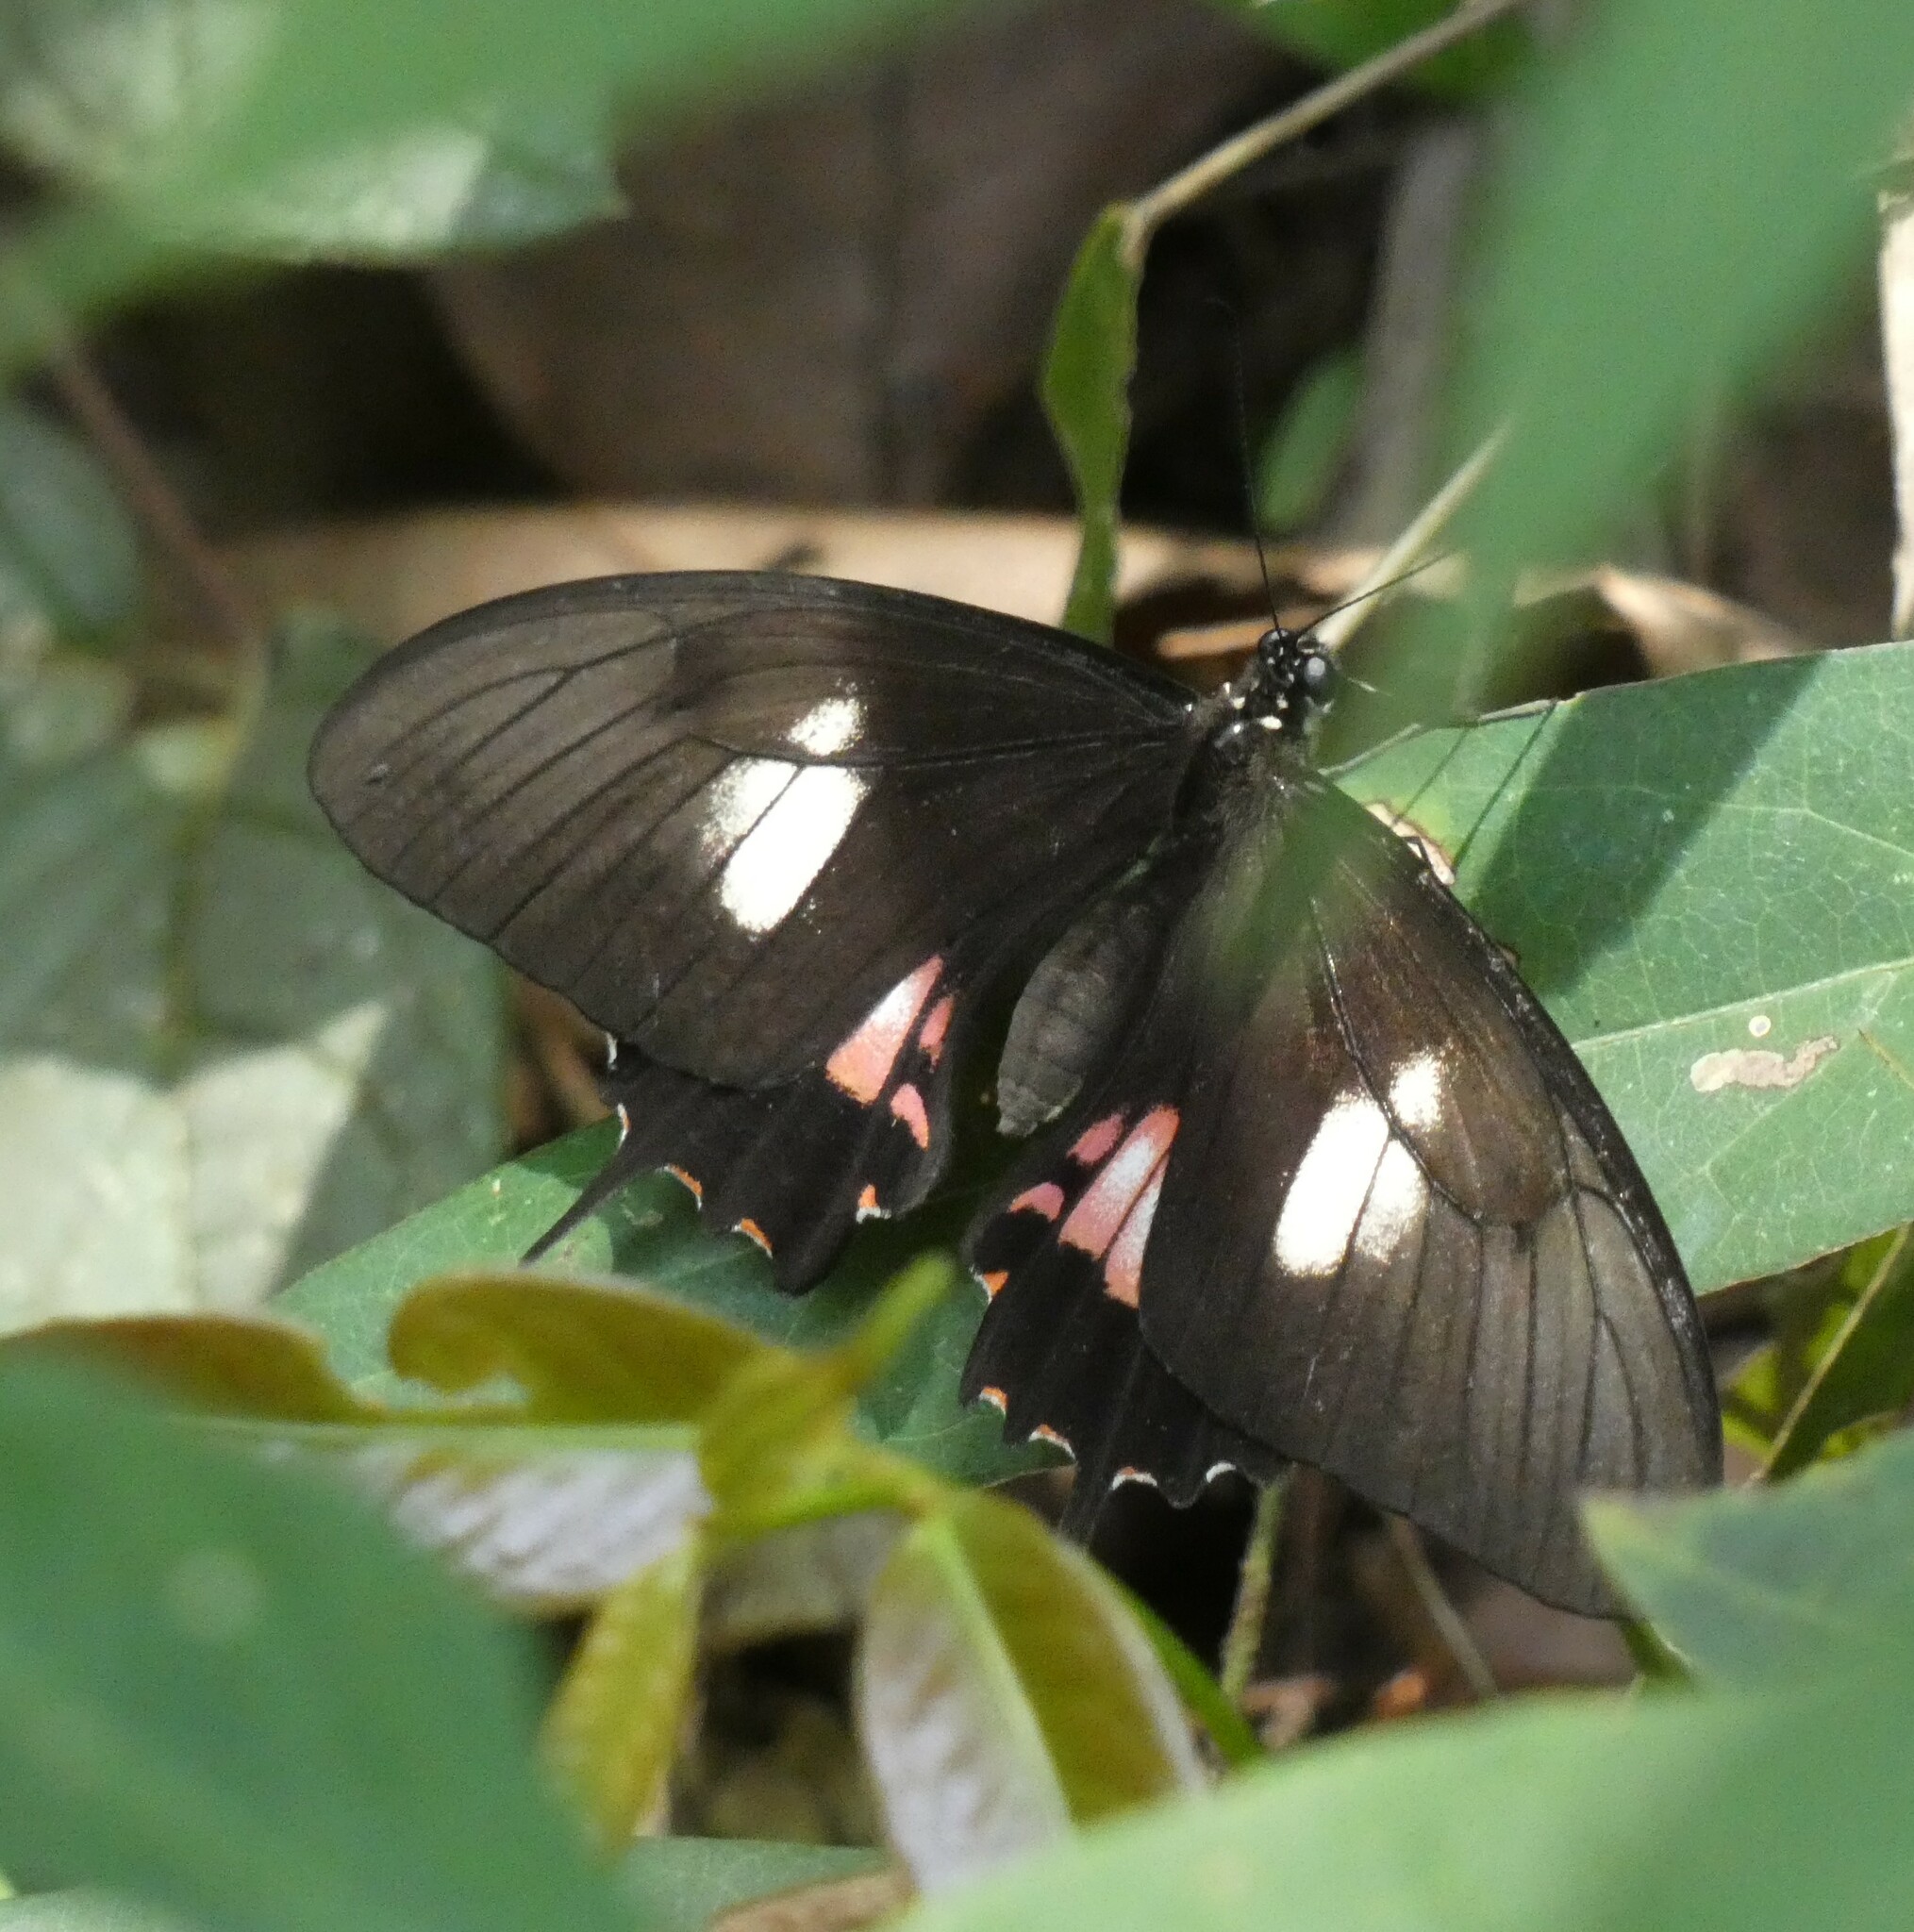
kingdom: Animalia
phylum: Arthropoda
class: Insecta
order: Lepidoptera
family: Papilionidae
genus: Papilio
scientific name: Papilio torquatus
